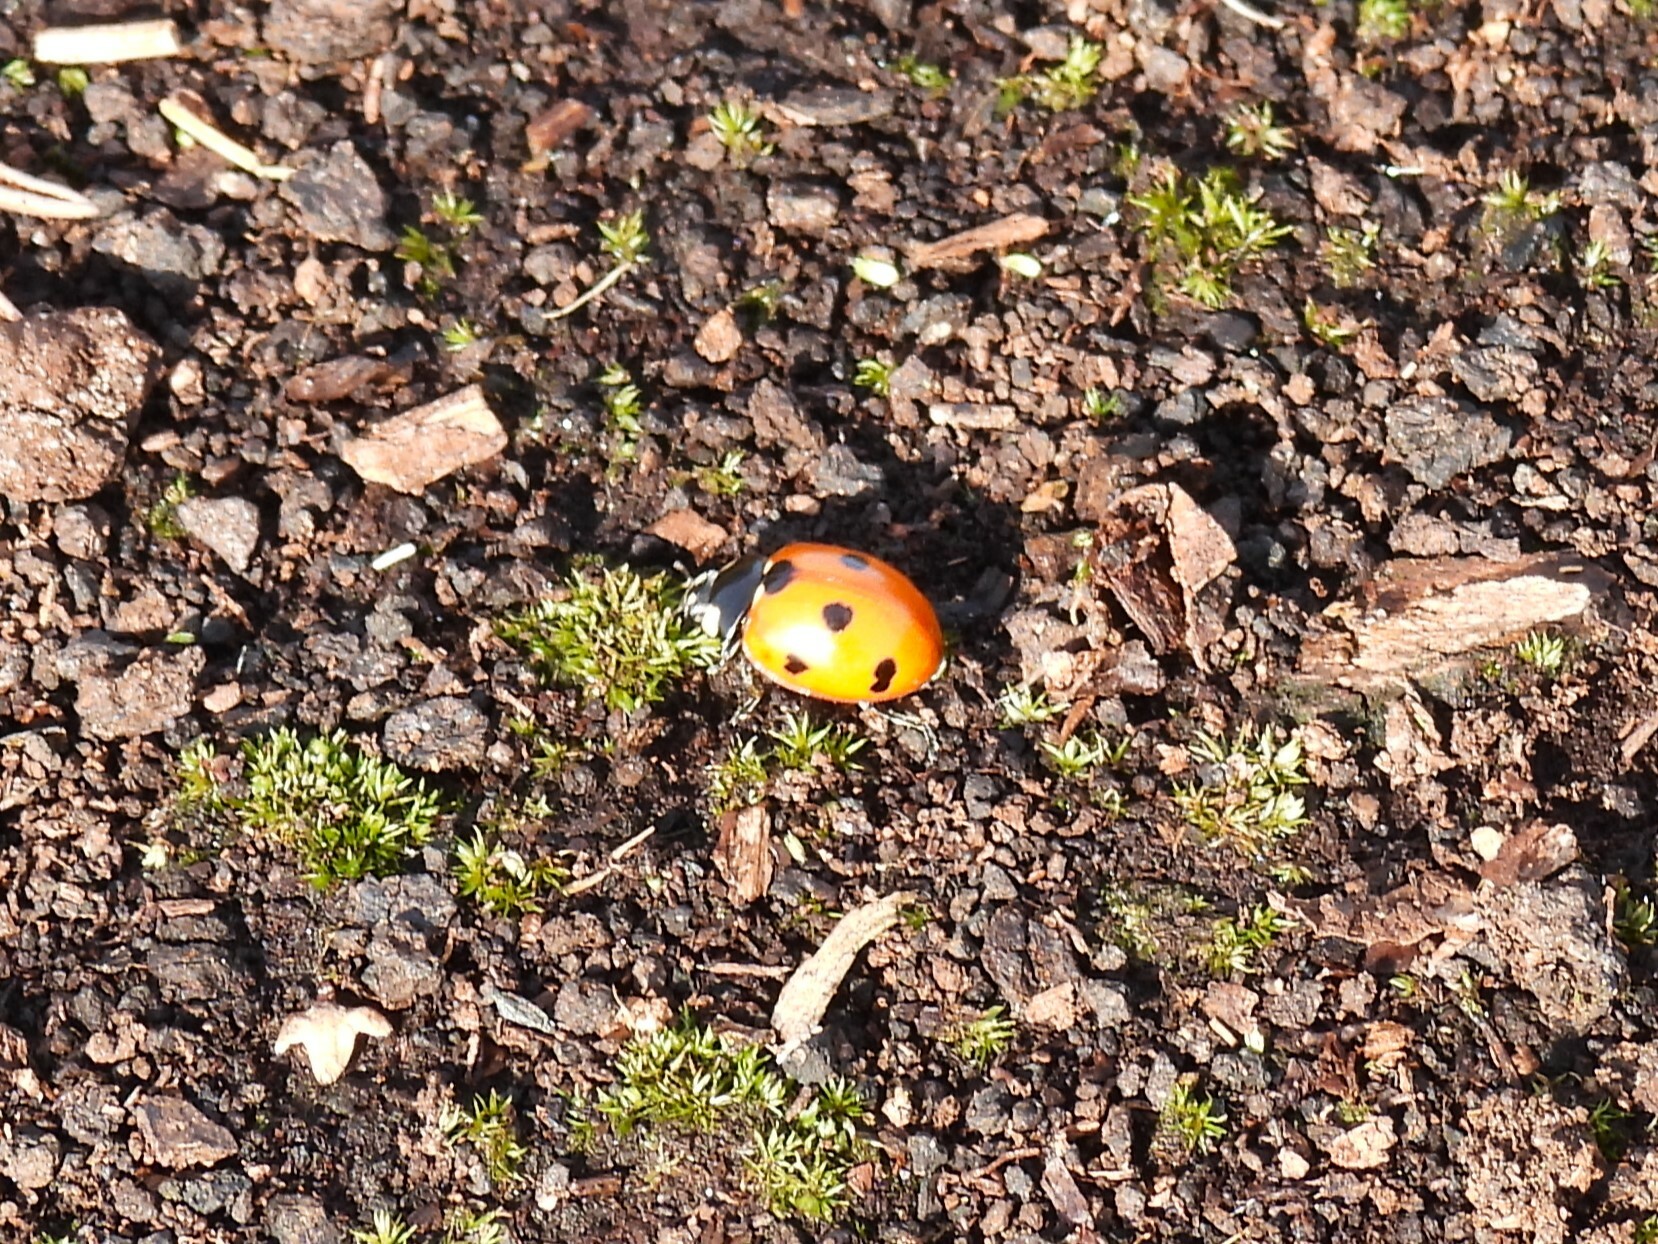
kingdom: Animalia
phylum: Arthropoda
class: Insecta
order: Coleoptera
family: Coccinellidae
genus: Coccinella
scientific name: Coccinella septempunctata
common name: Sevenspotted lady beetle
